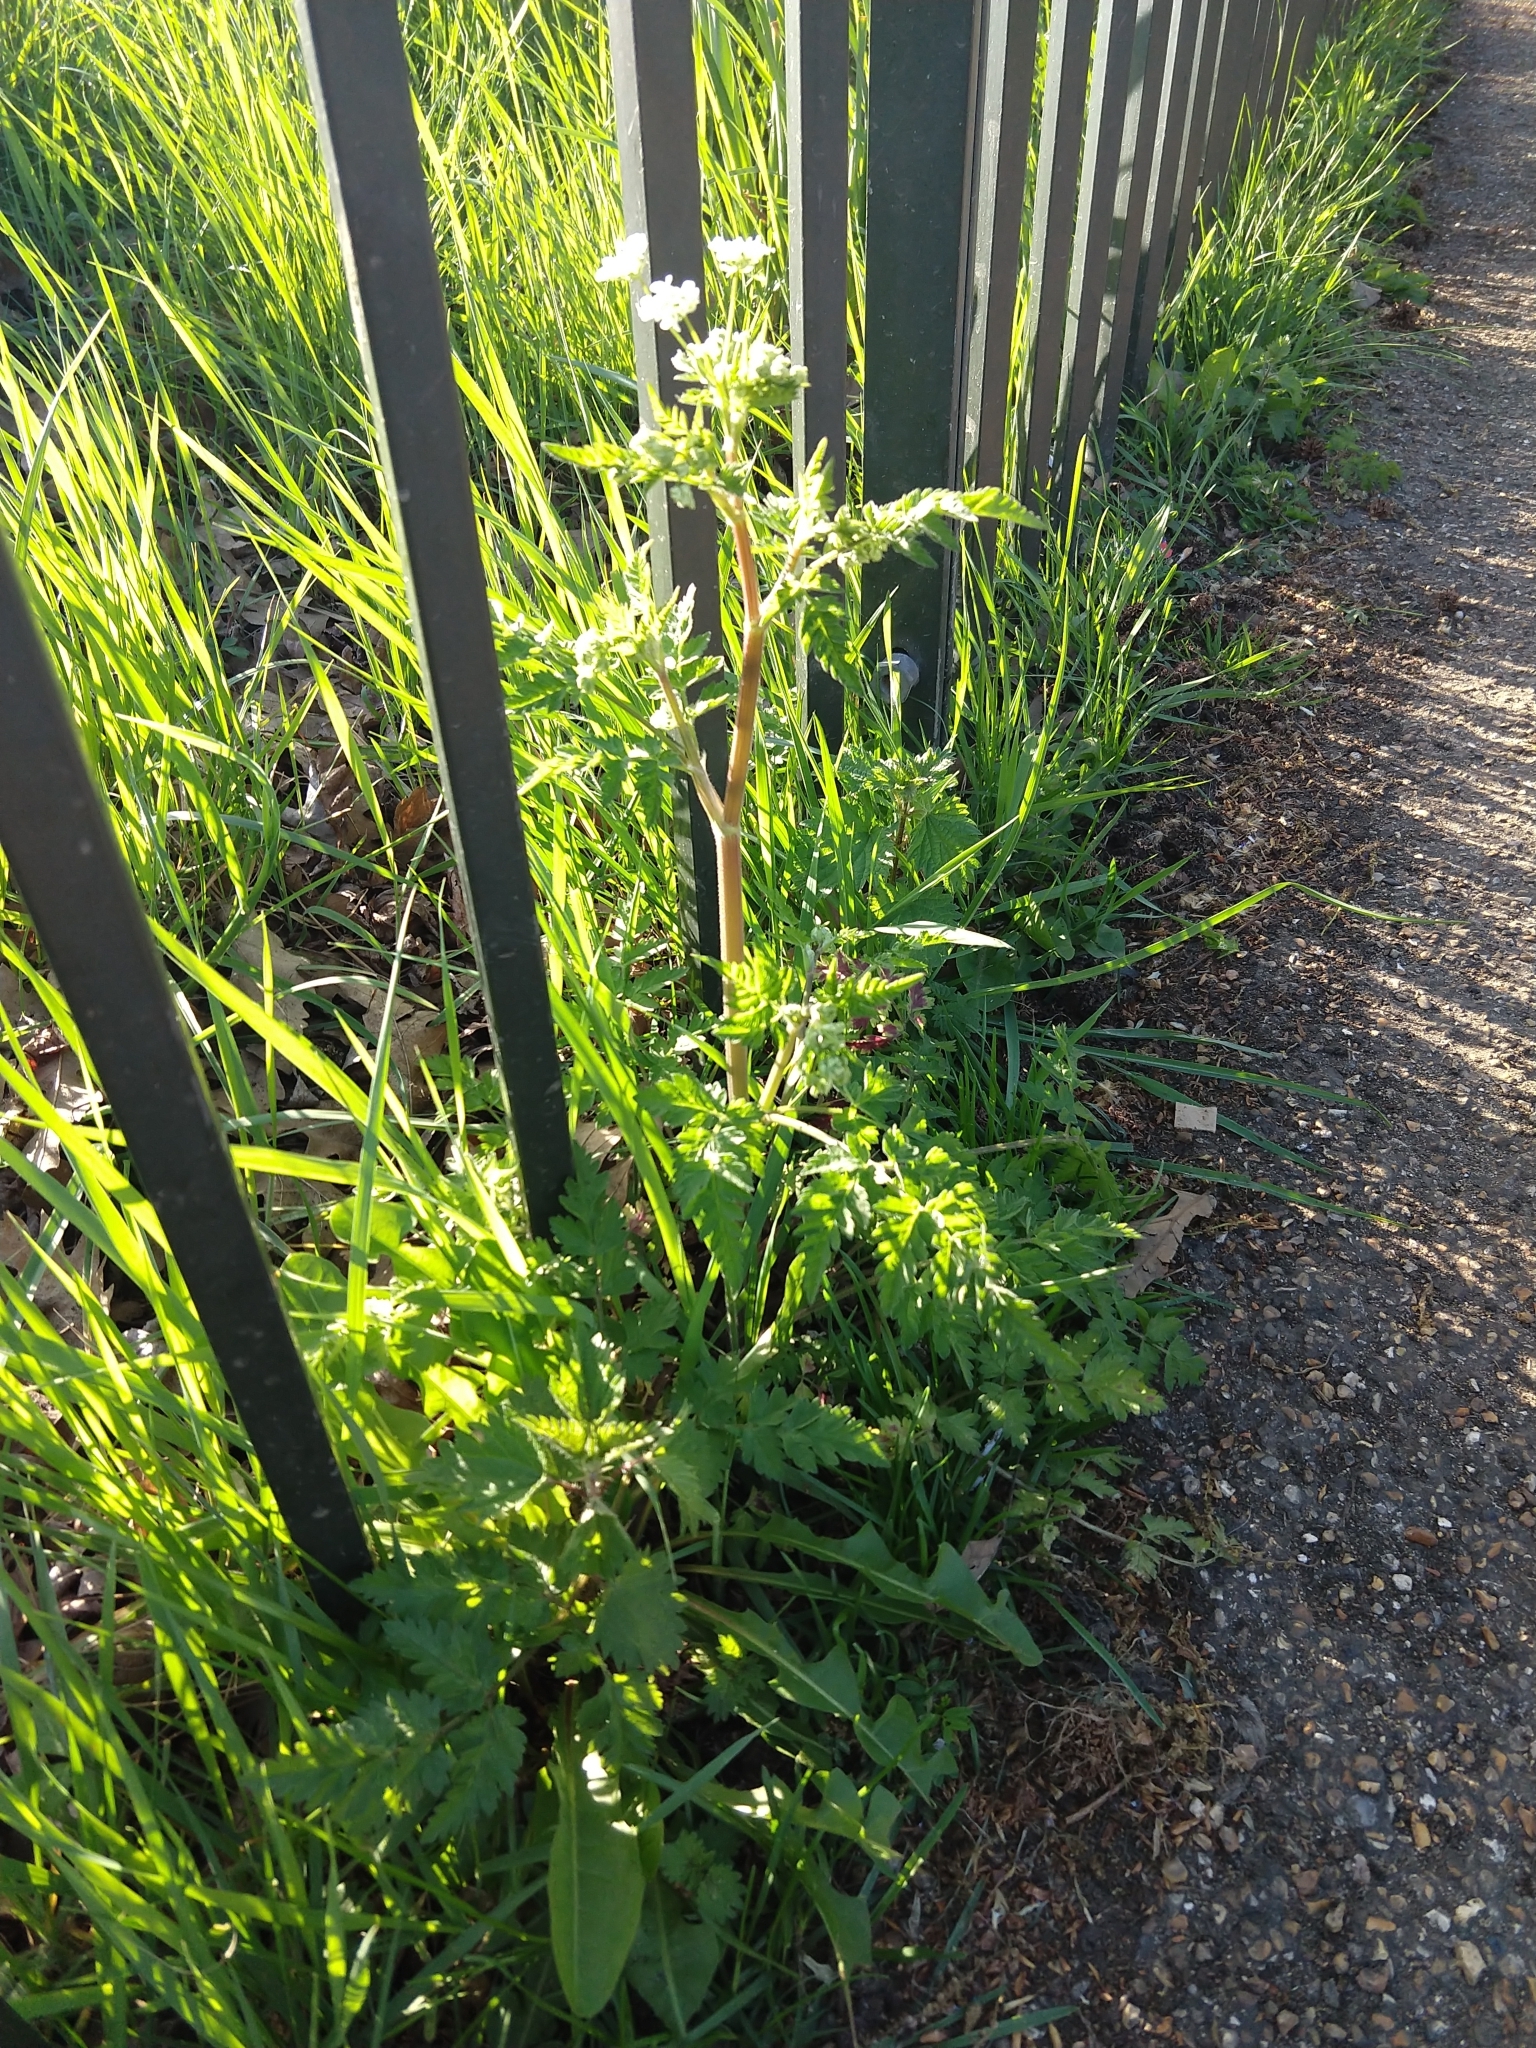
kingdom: Plantae
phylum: Tracheophyta
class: Magnoliopsida
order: Apiales
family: Apiaceae
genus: Anthriscus
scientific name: Anthriscus sylvestris
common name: Cow parsley
